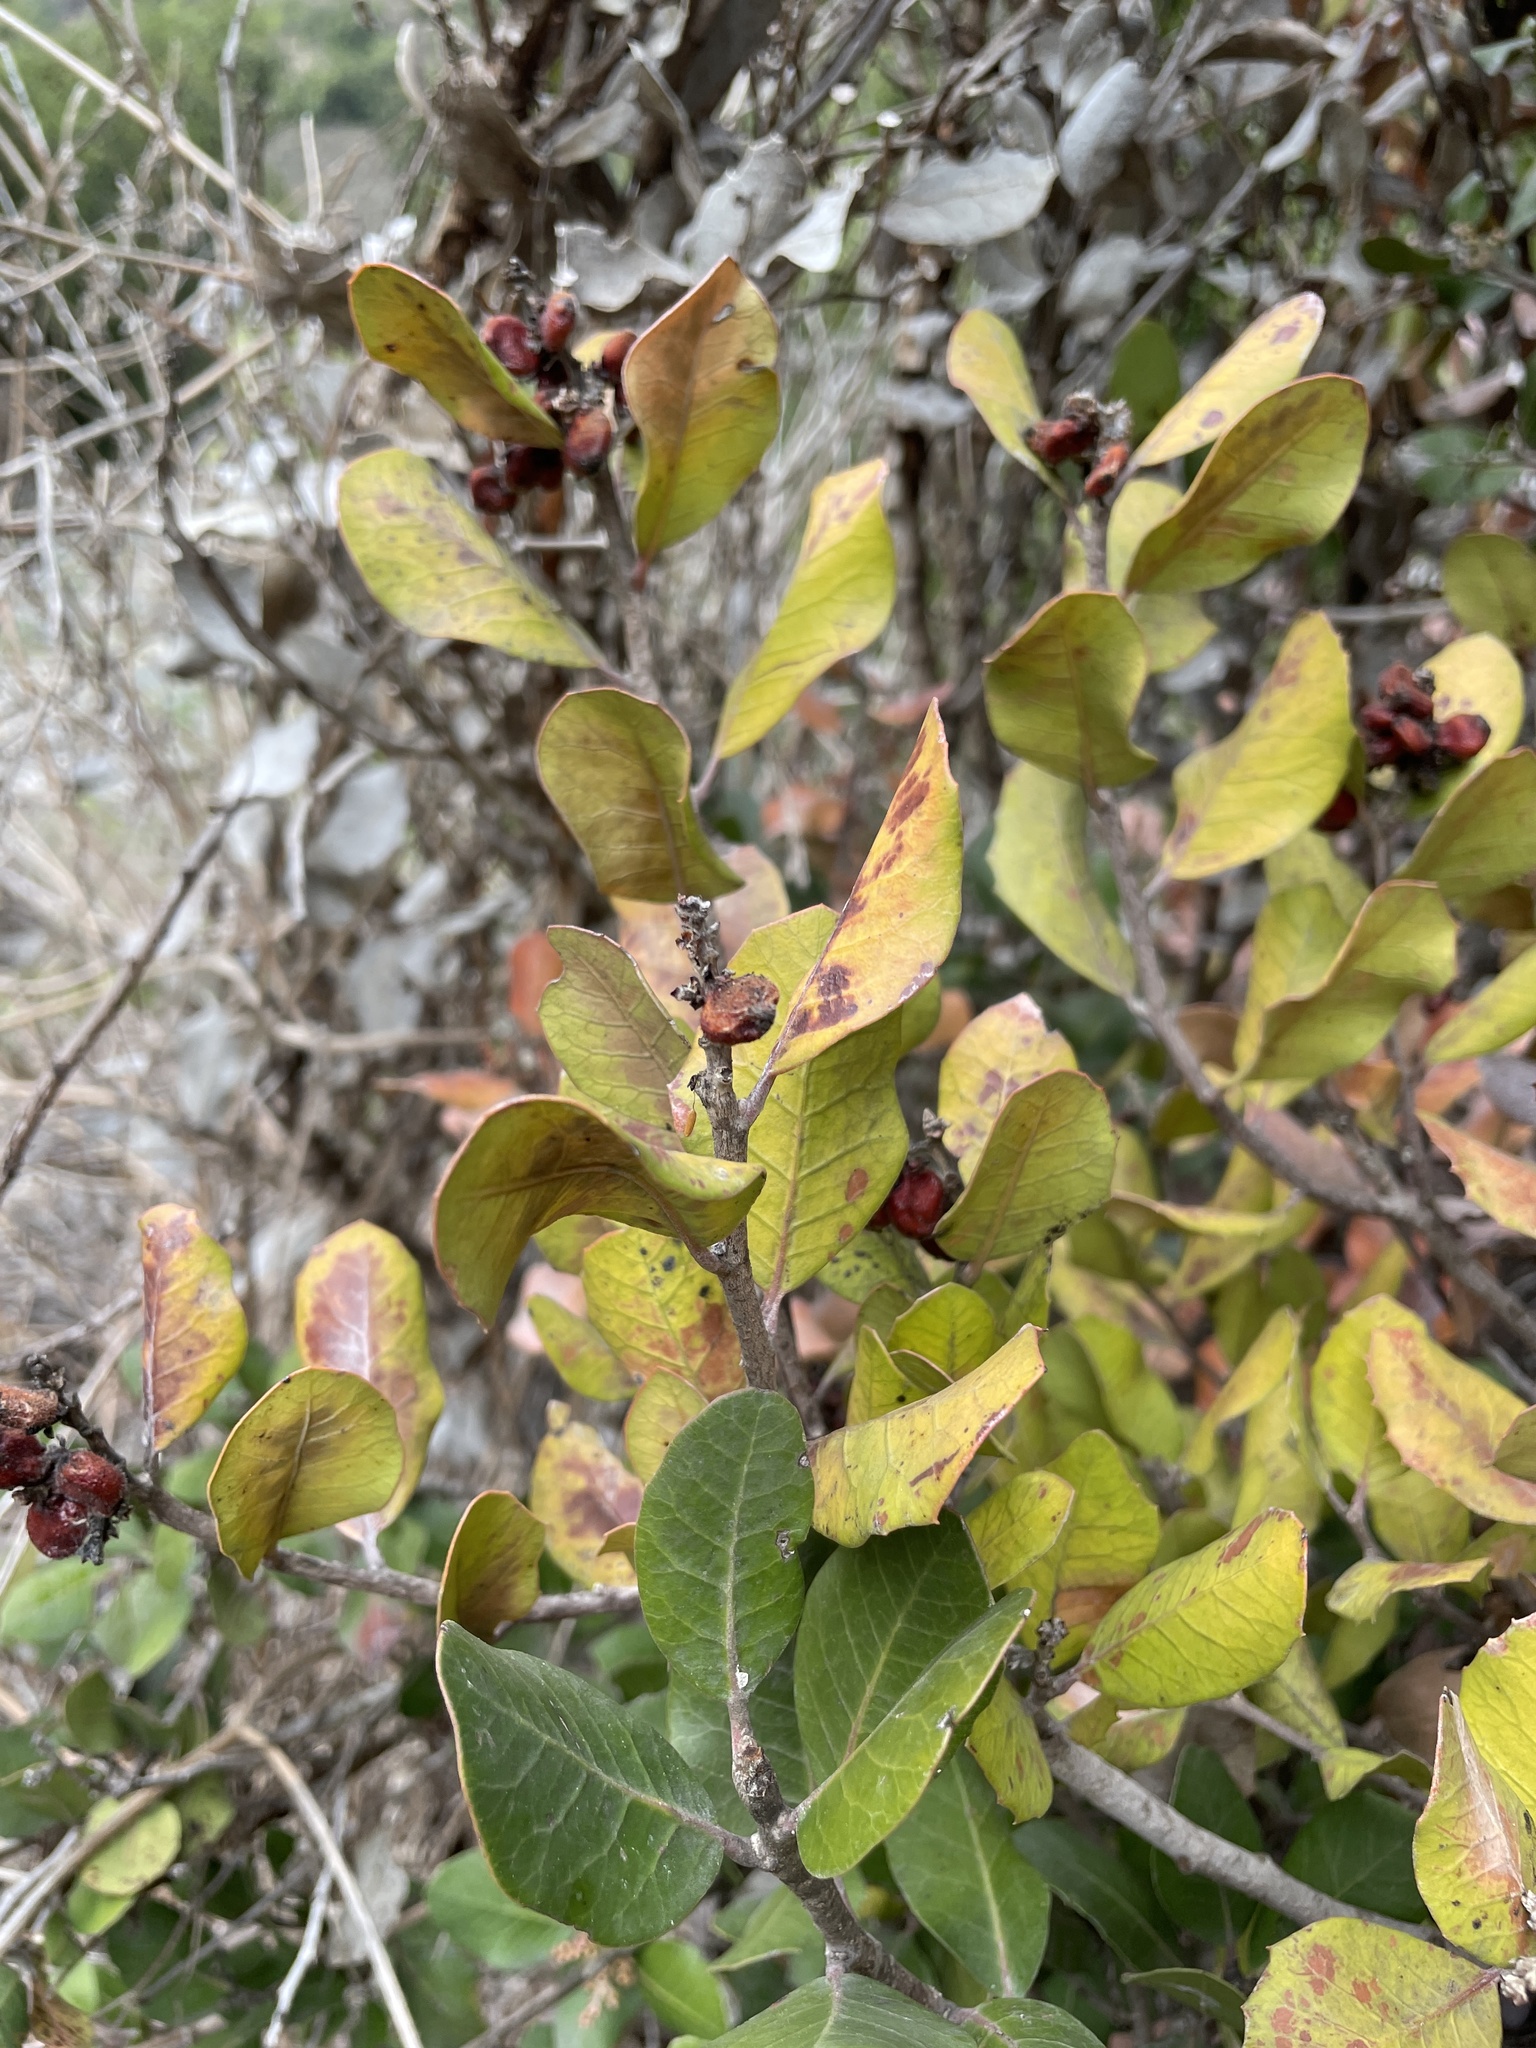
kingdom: Plantae
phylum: Tracheophyta
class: Magnoliopsida
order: Sapindales
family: Anacardiaceae
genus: Rhus
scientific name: Rhus integrifolia
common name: Lemonade sumac
